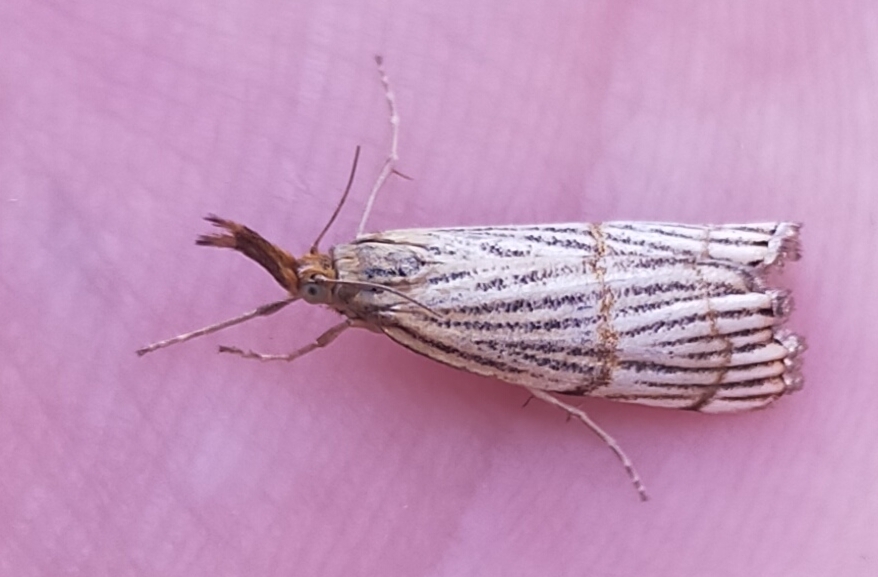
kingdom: Animalia
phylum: Arthropoda
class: Insecta
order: Lepidoptera
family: Crambidae
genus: Chrysocrambus
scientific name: Chrysocrambus linetella
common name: Orange-bar grass-veneer
